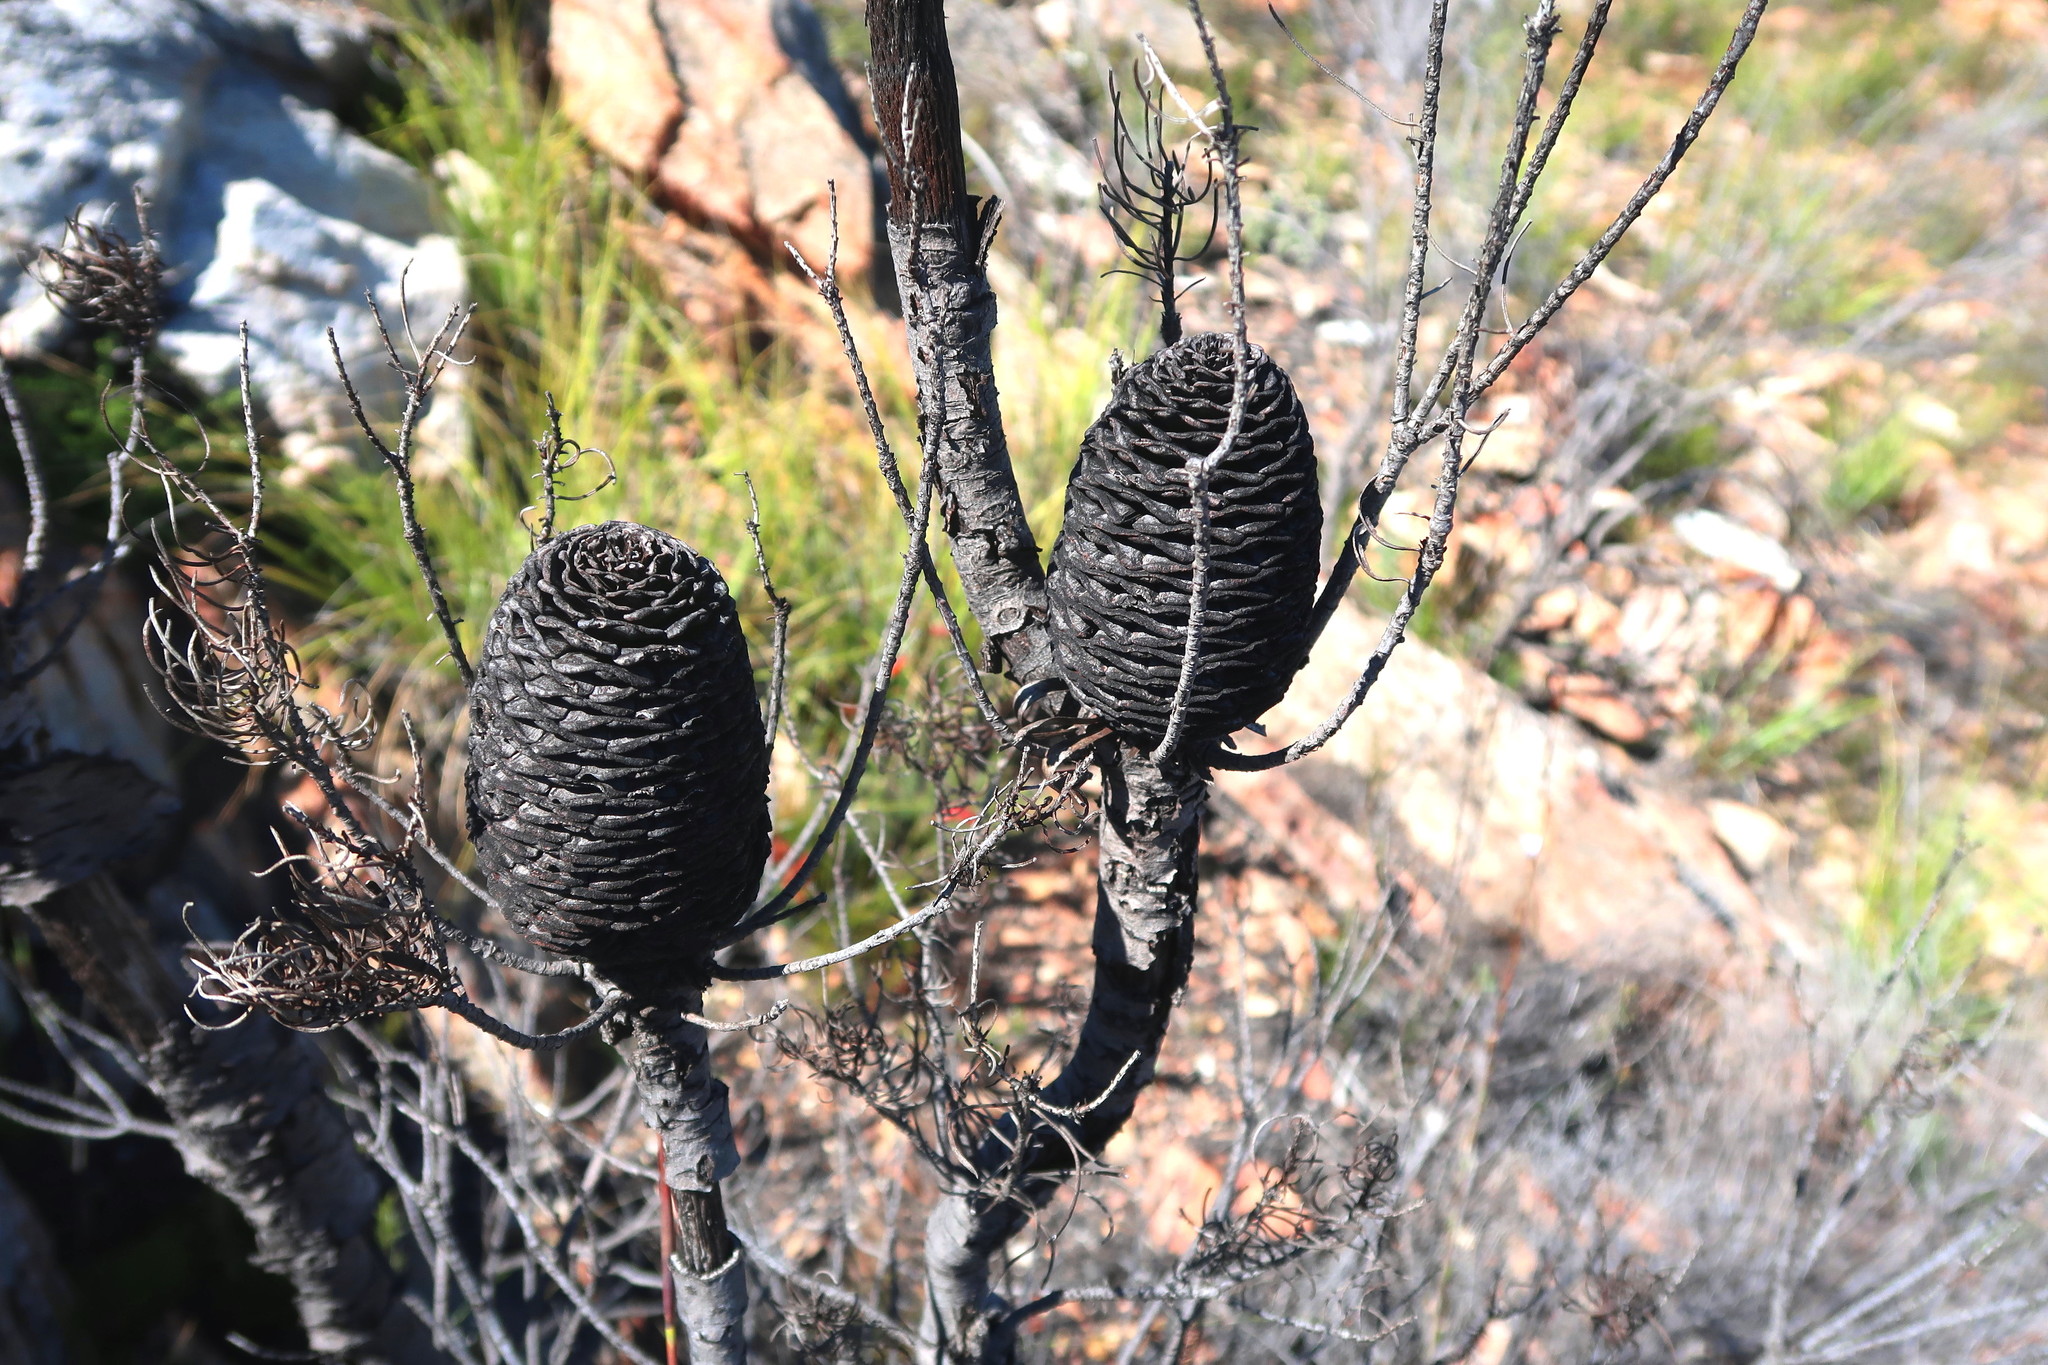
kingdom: Plantae
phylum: Tracheophyta
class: Magnoliopsida
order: Proteales
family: Proteaceae
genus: Leucadendron
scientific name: Leucadendron comosum
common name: Ridge-cone conebush
